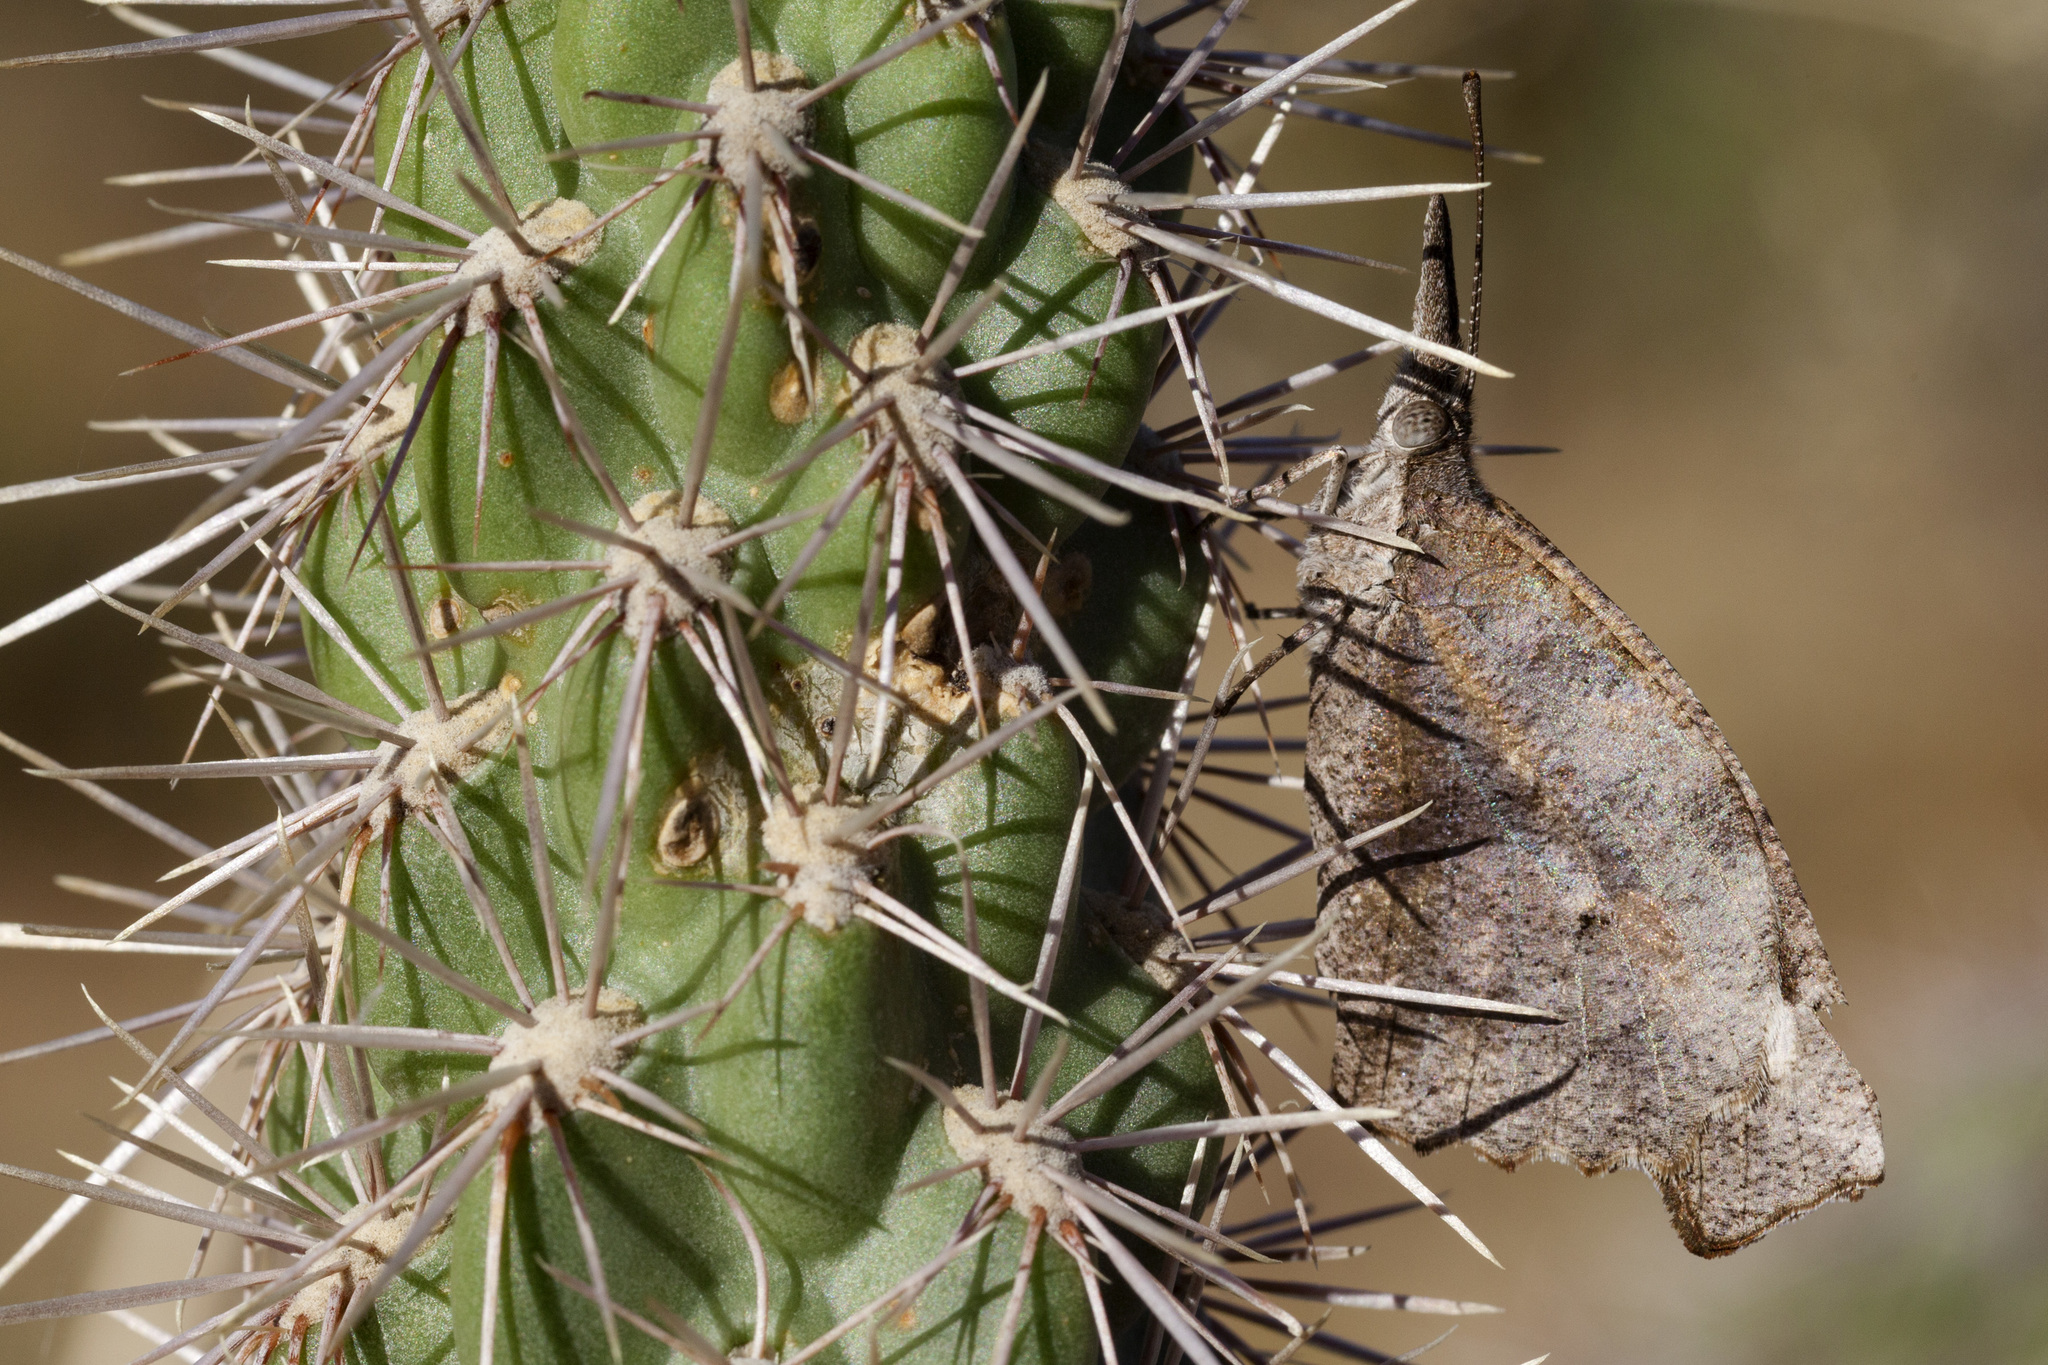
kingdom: Animalia
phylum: Arthropoda
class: Insecta
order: Lepidoptera
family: Nymphalidae
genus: Libytheana
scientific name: Libytheana carinenta
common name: American snout
